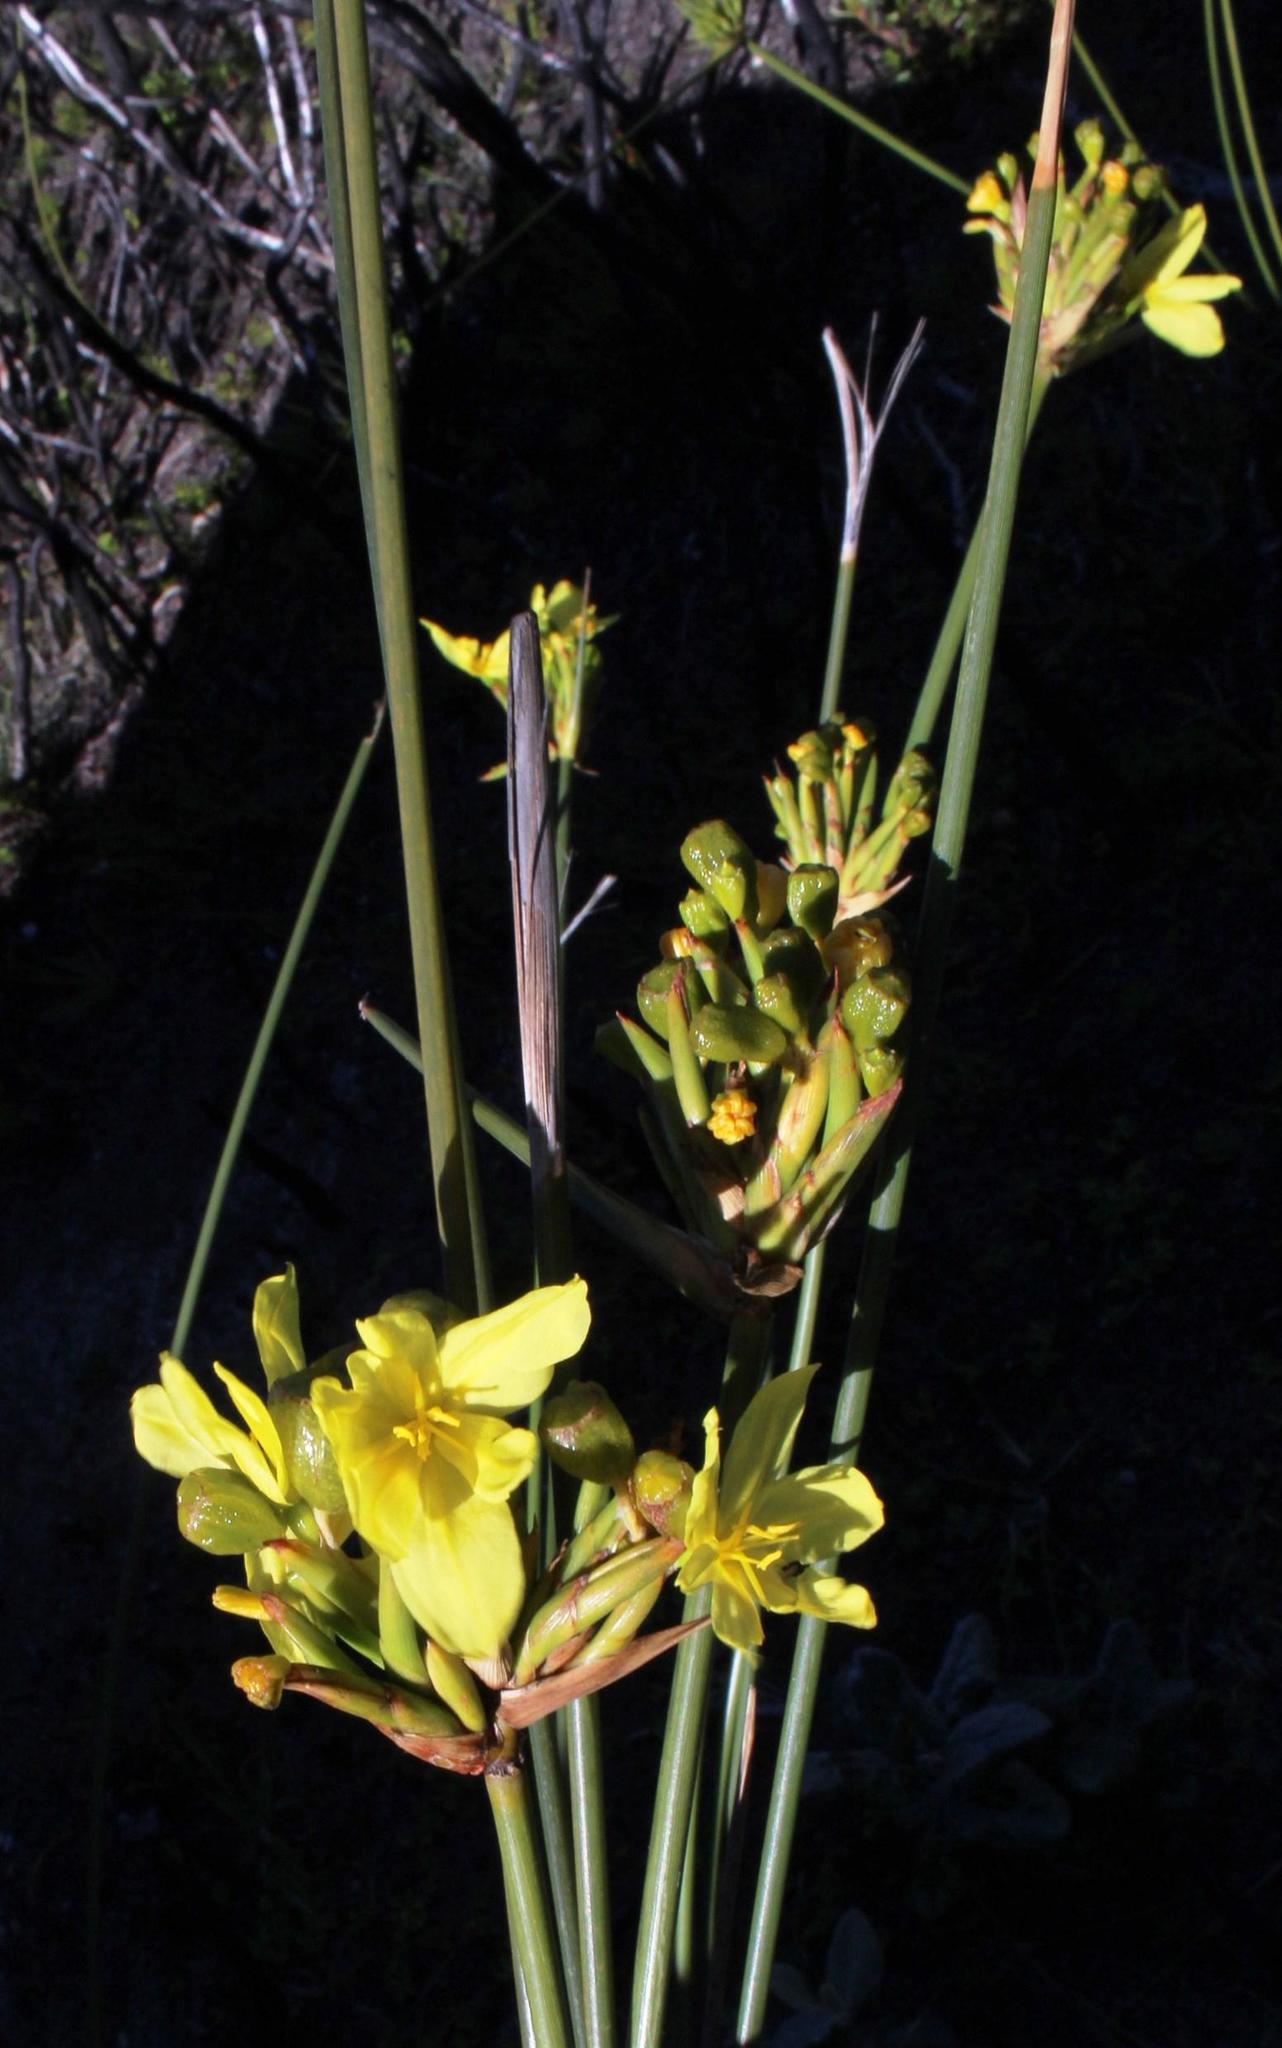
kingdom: Plantae
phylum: Tracheophyta
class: Liliopsida
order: Asparagales
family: Iridaceae
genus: Bobartia
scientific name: Bobartia indica
